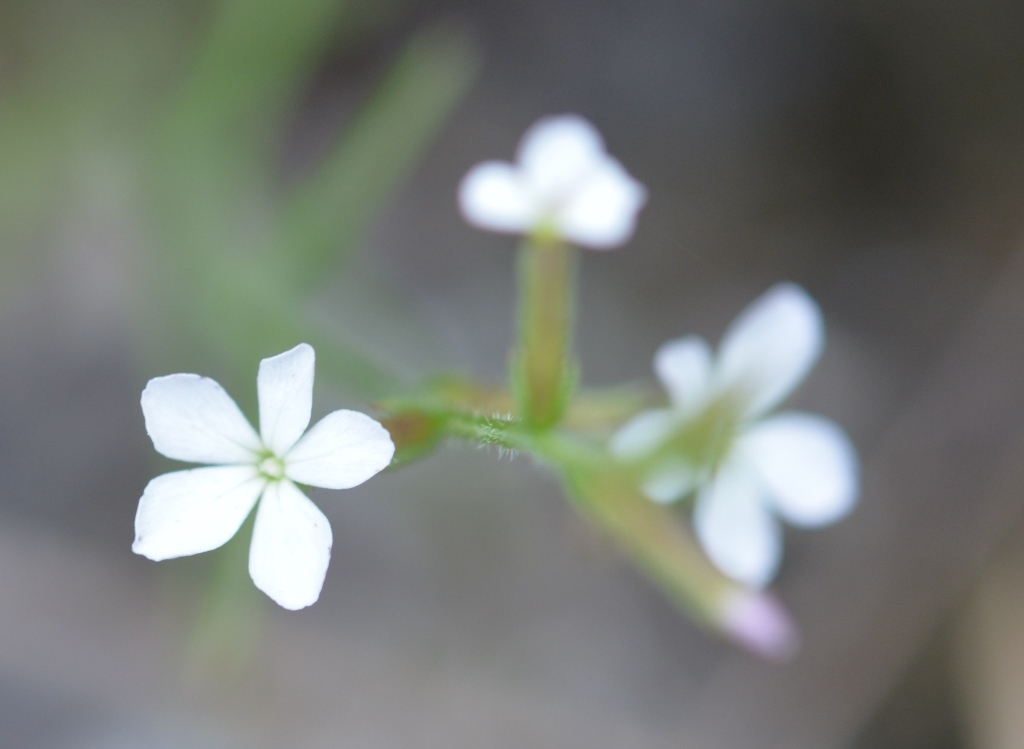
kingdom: Plantae
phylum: Tracheophyta
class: Magnoliopsida
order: Lamiales
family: Orobanchaceae
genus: Buchnera
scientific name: Buchnera pusilla
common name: Pygmy bluehearts
